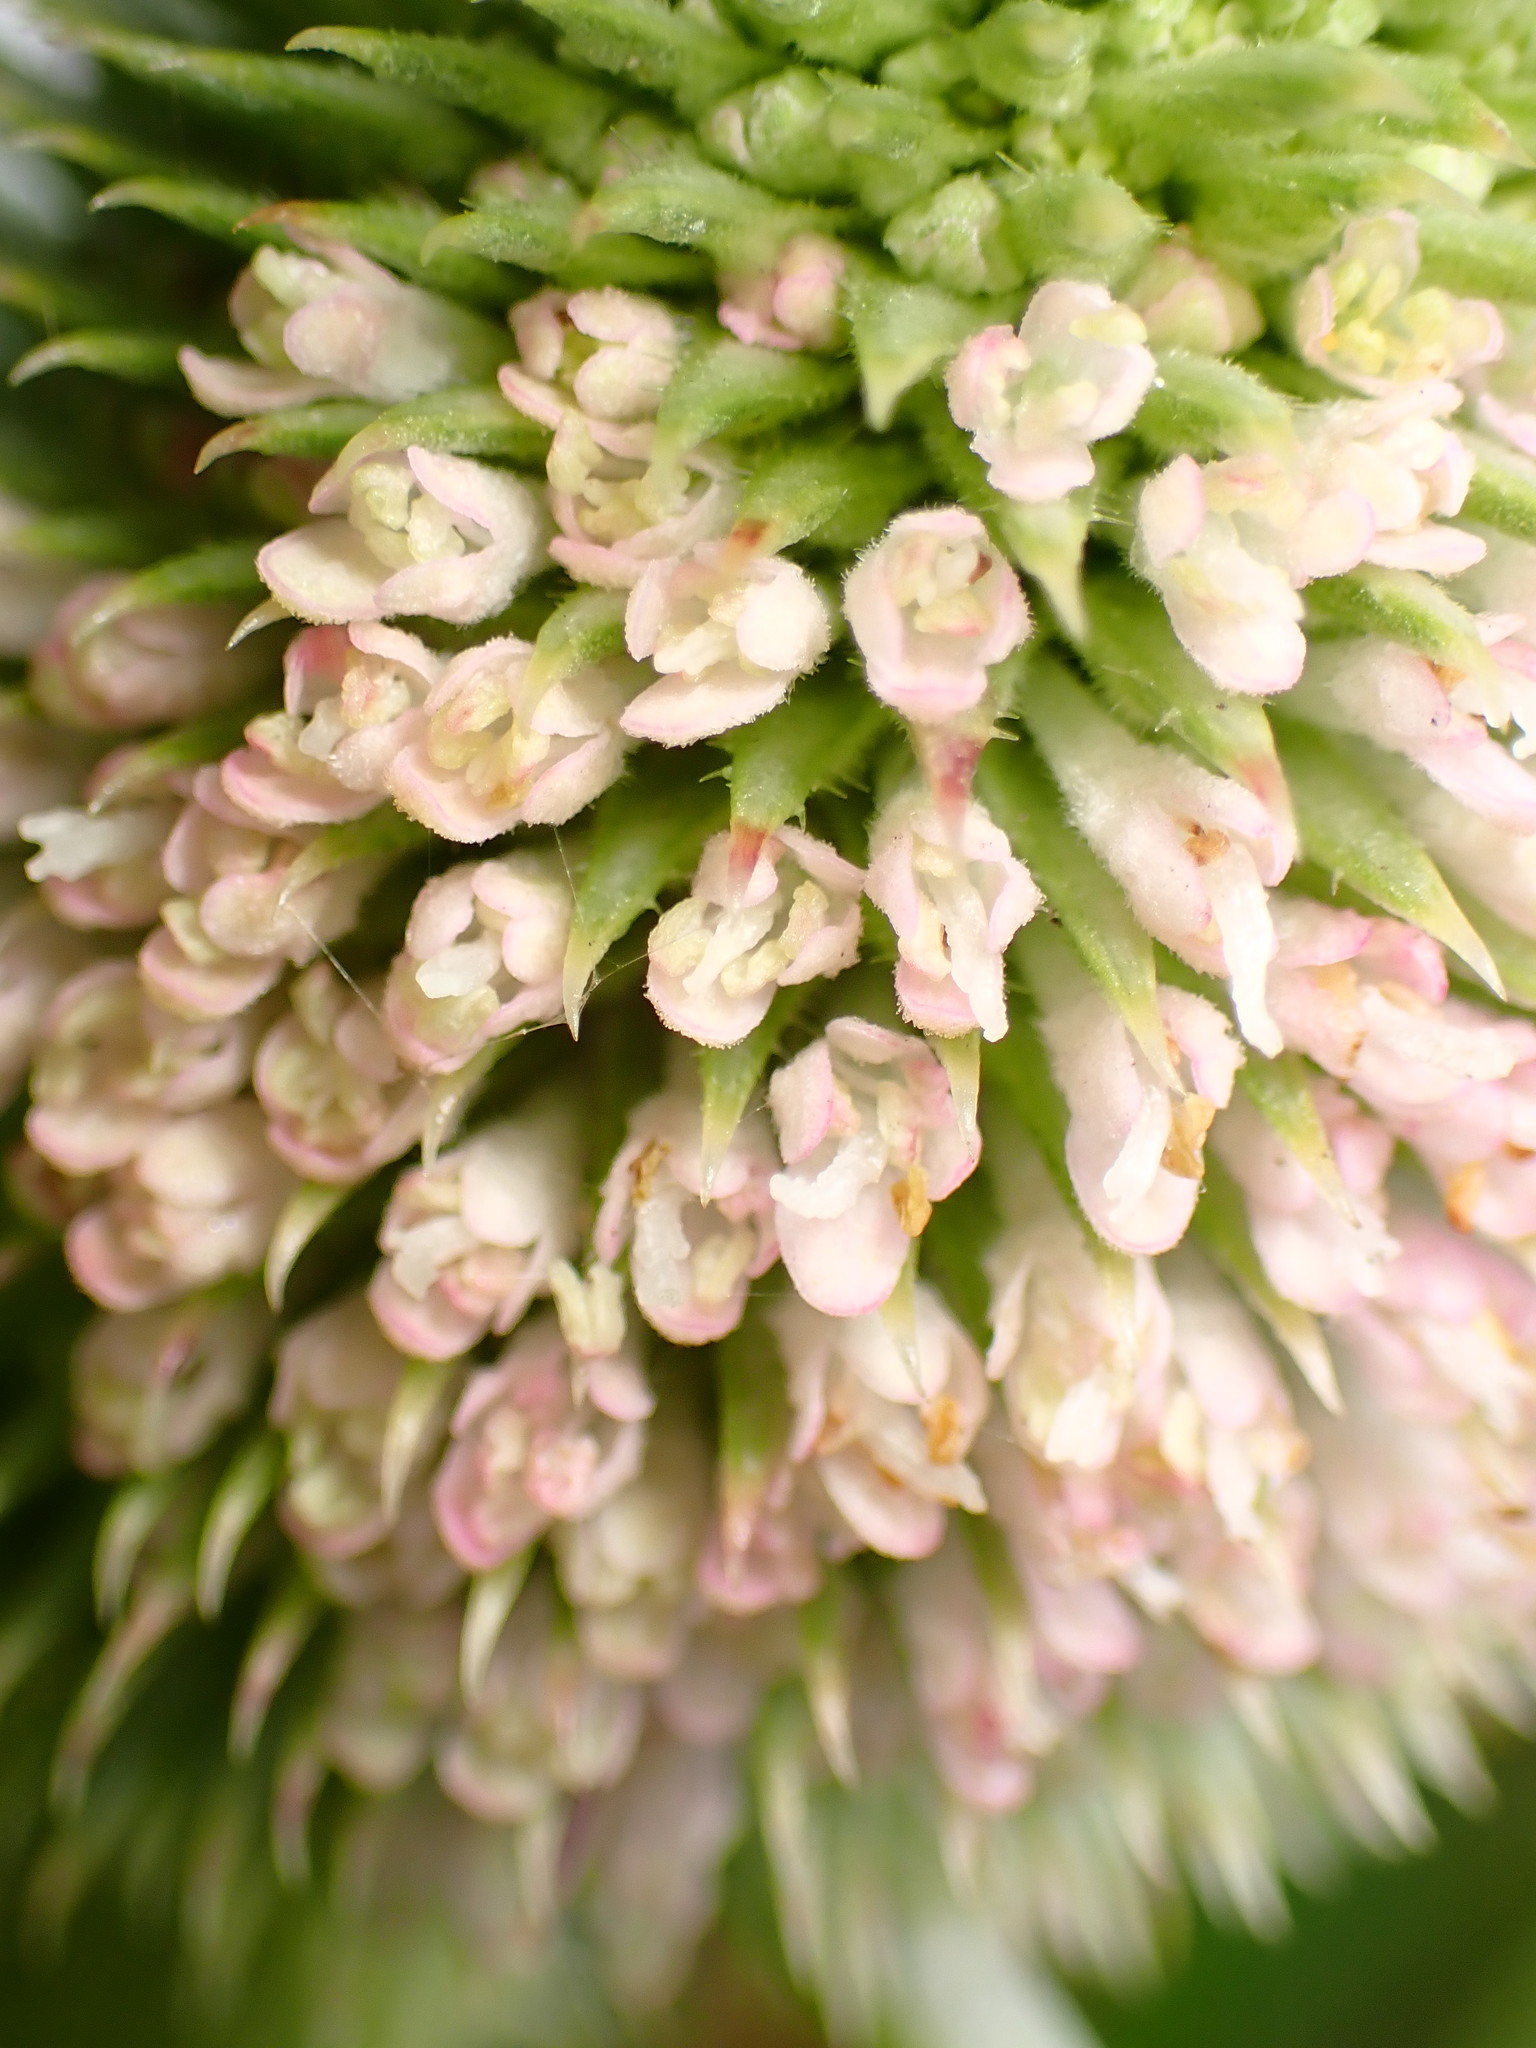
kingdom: Plantae
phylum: Tracheophyta
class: Magnoliopsida
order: Dipsacales
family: Caprifoliaceae
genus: Dipsacus
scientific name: Dipsacus sativus
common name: Fuller's teasel
